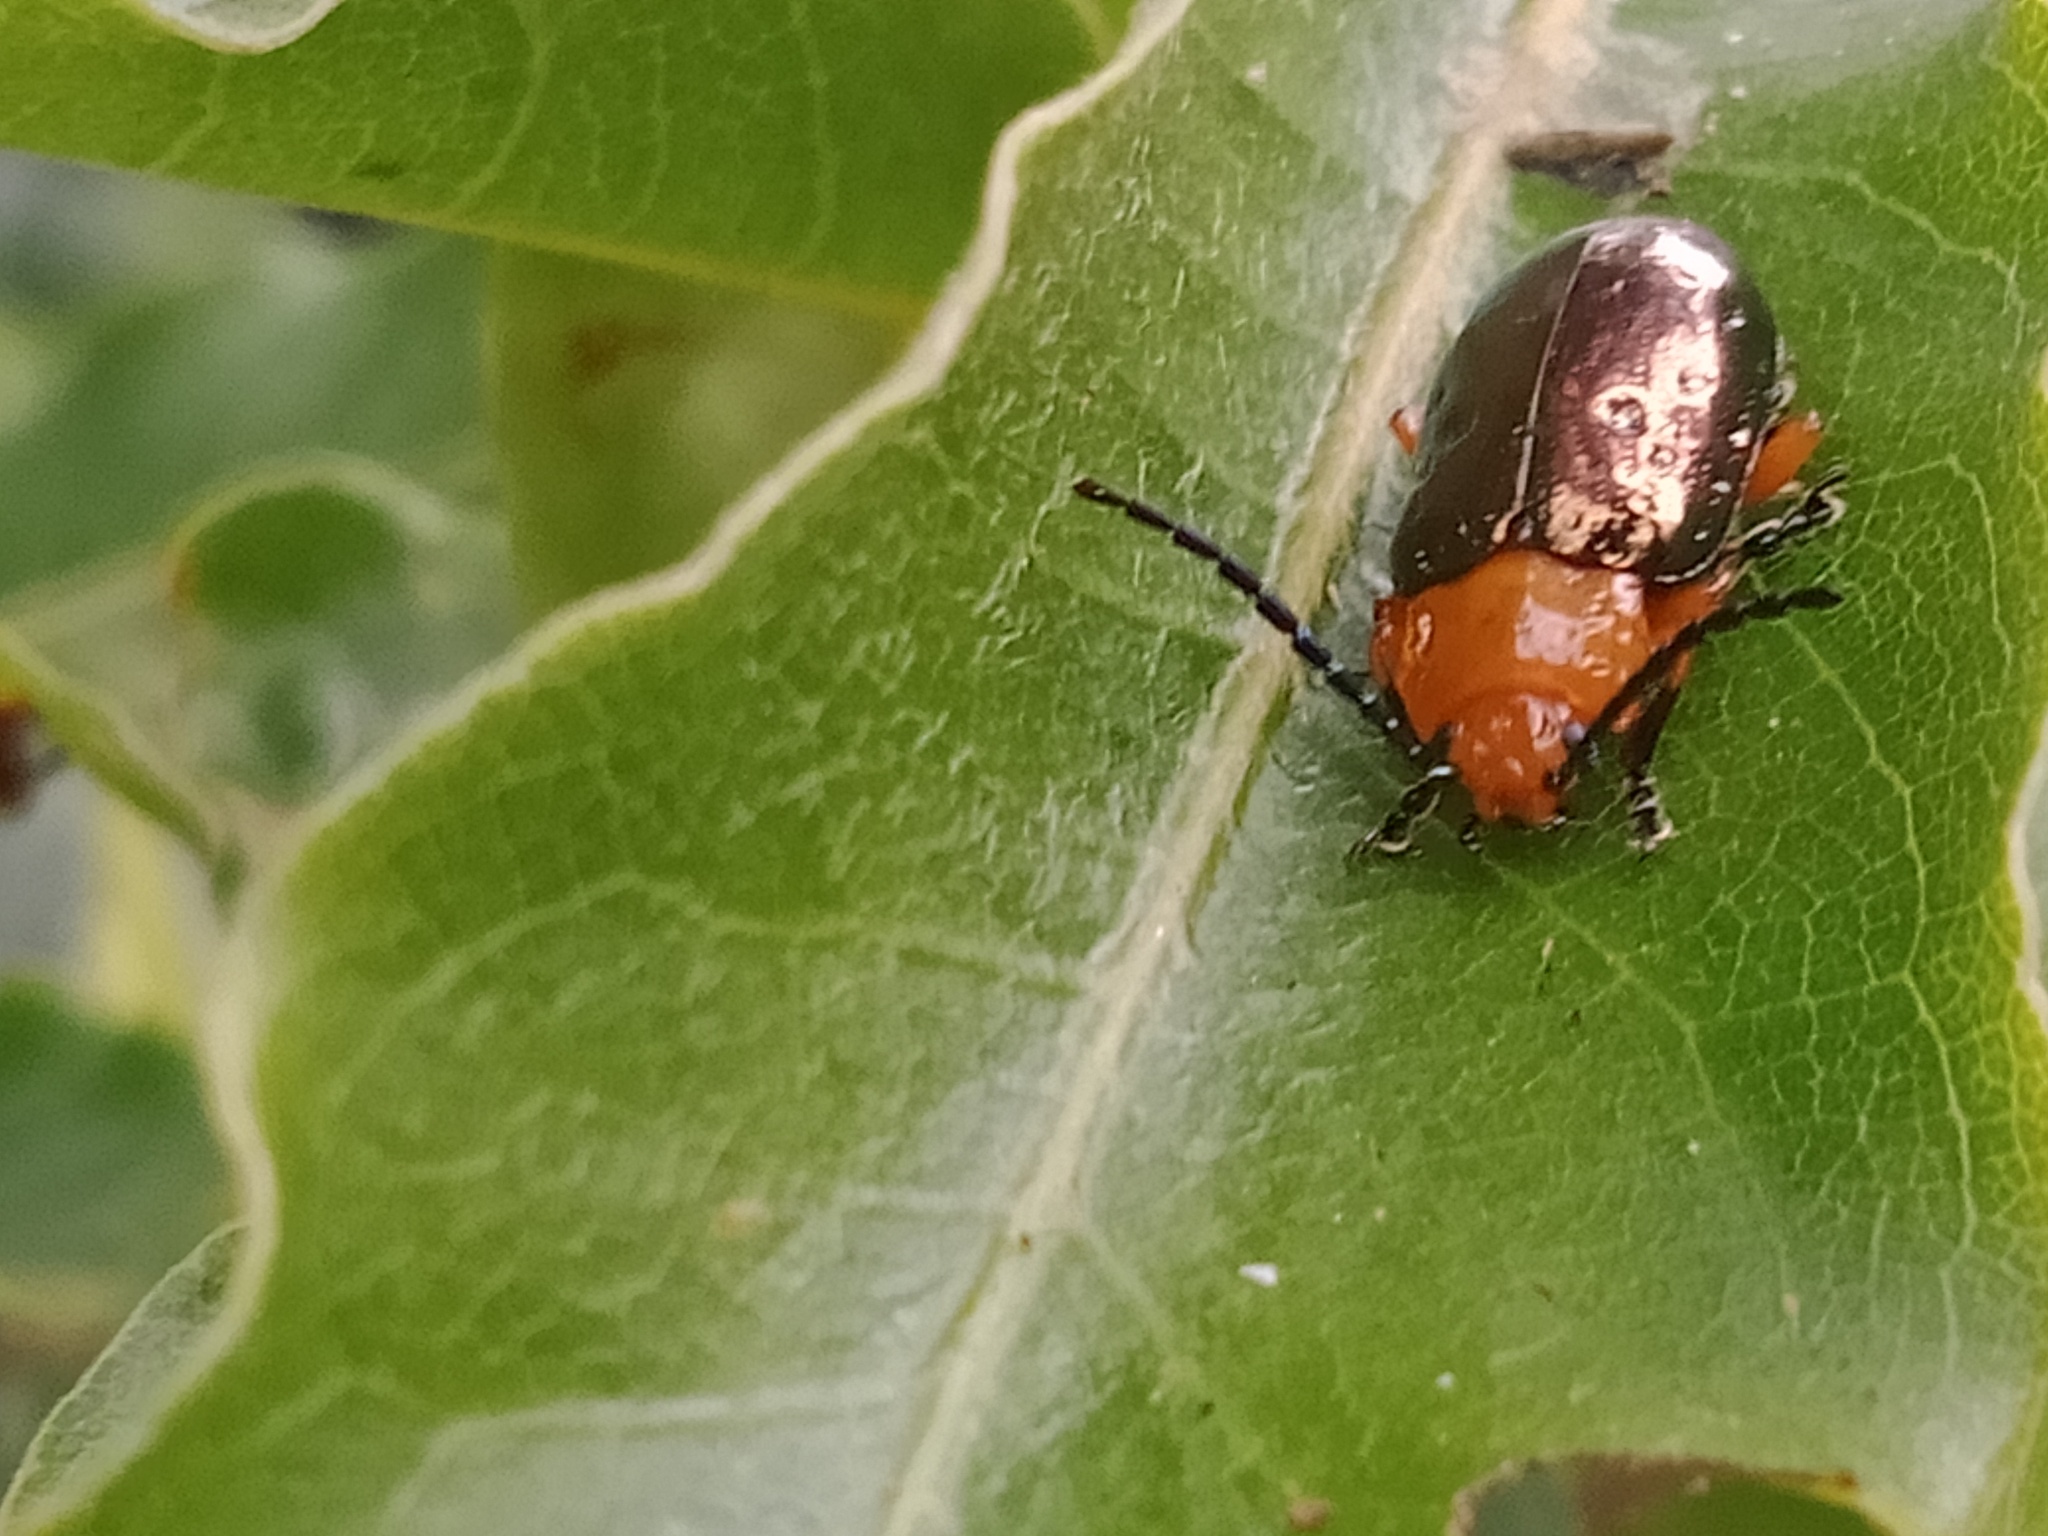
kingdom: Animalia
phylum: Arthropoda
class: Insecta
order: Coleoptera
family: Chrysomelidae
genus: Lamprolina
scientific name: Lamprolina
